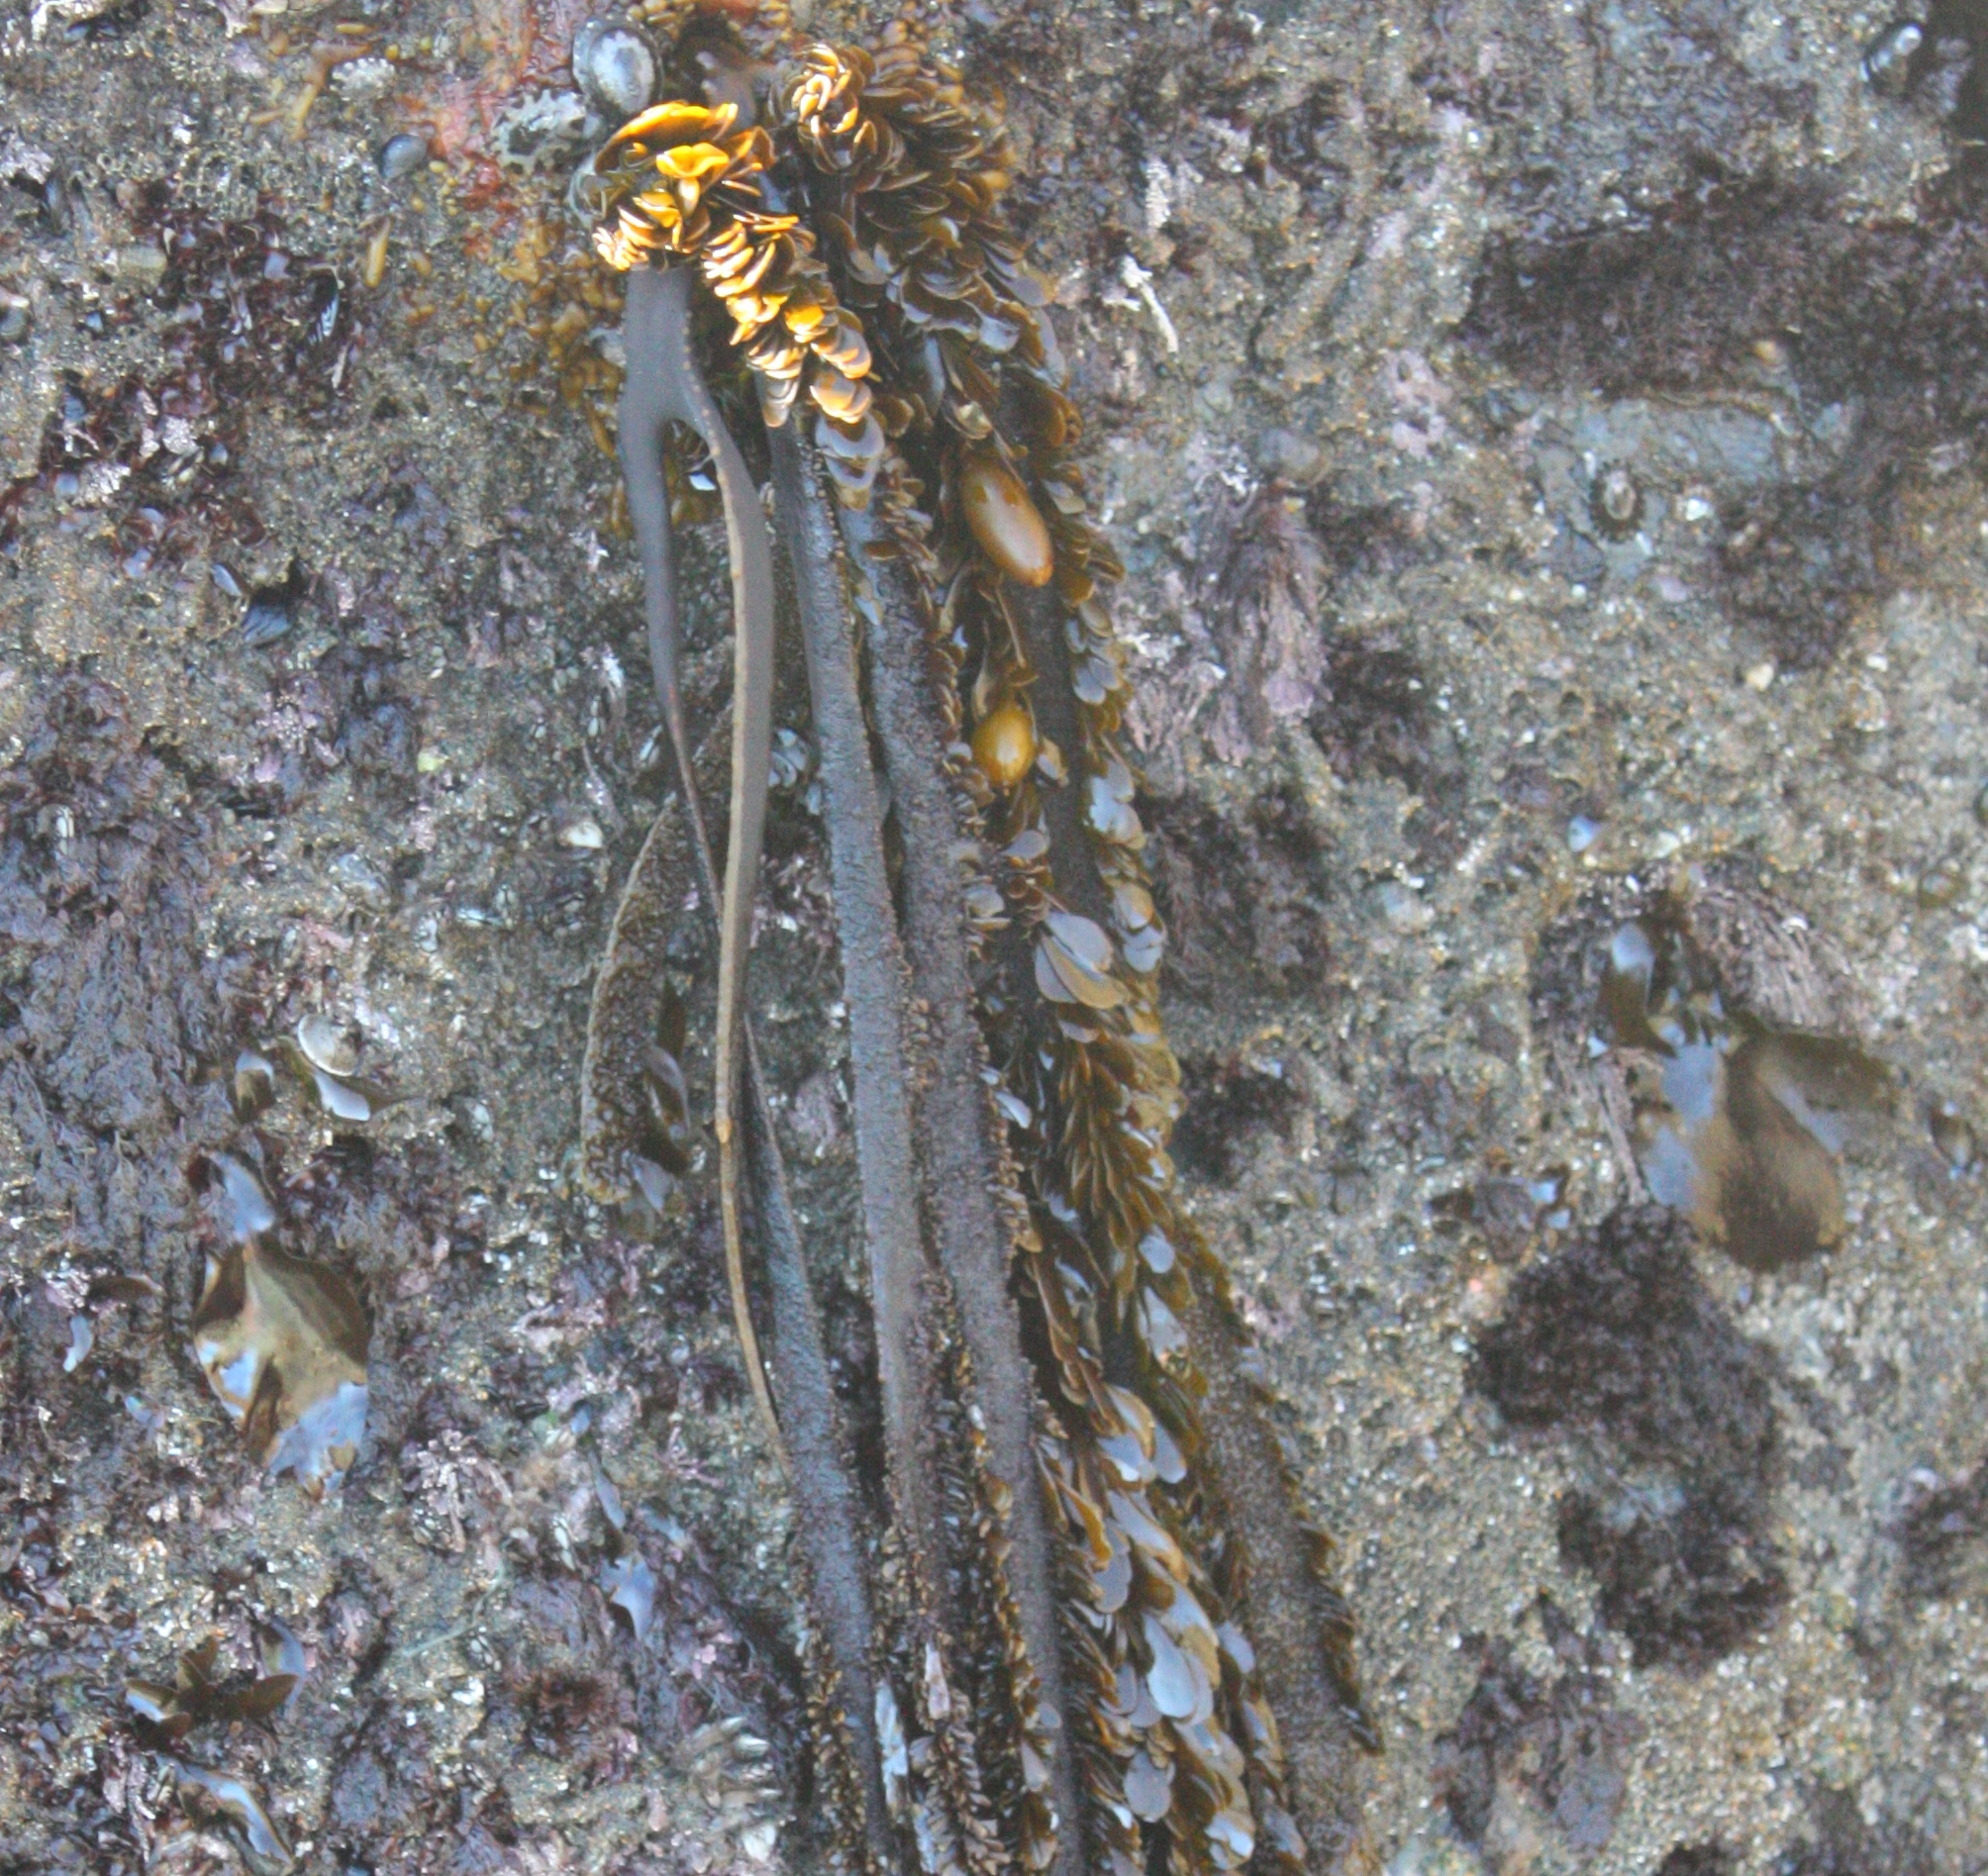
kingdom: Chromista
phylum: Ochrophyta
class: Phaeophyceae
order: Laminariales
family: Lessoniaceae
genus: Egregia
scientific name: Egregia menziesii
